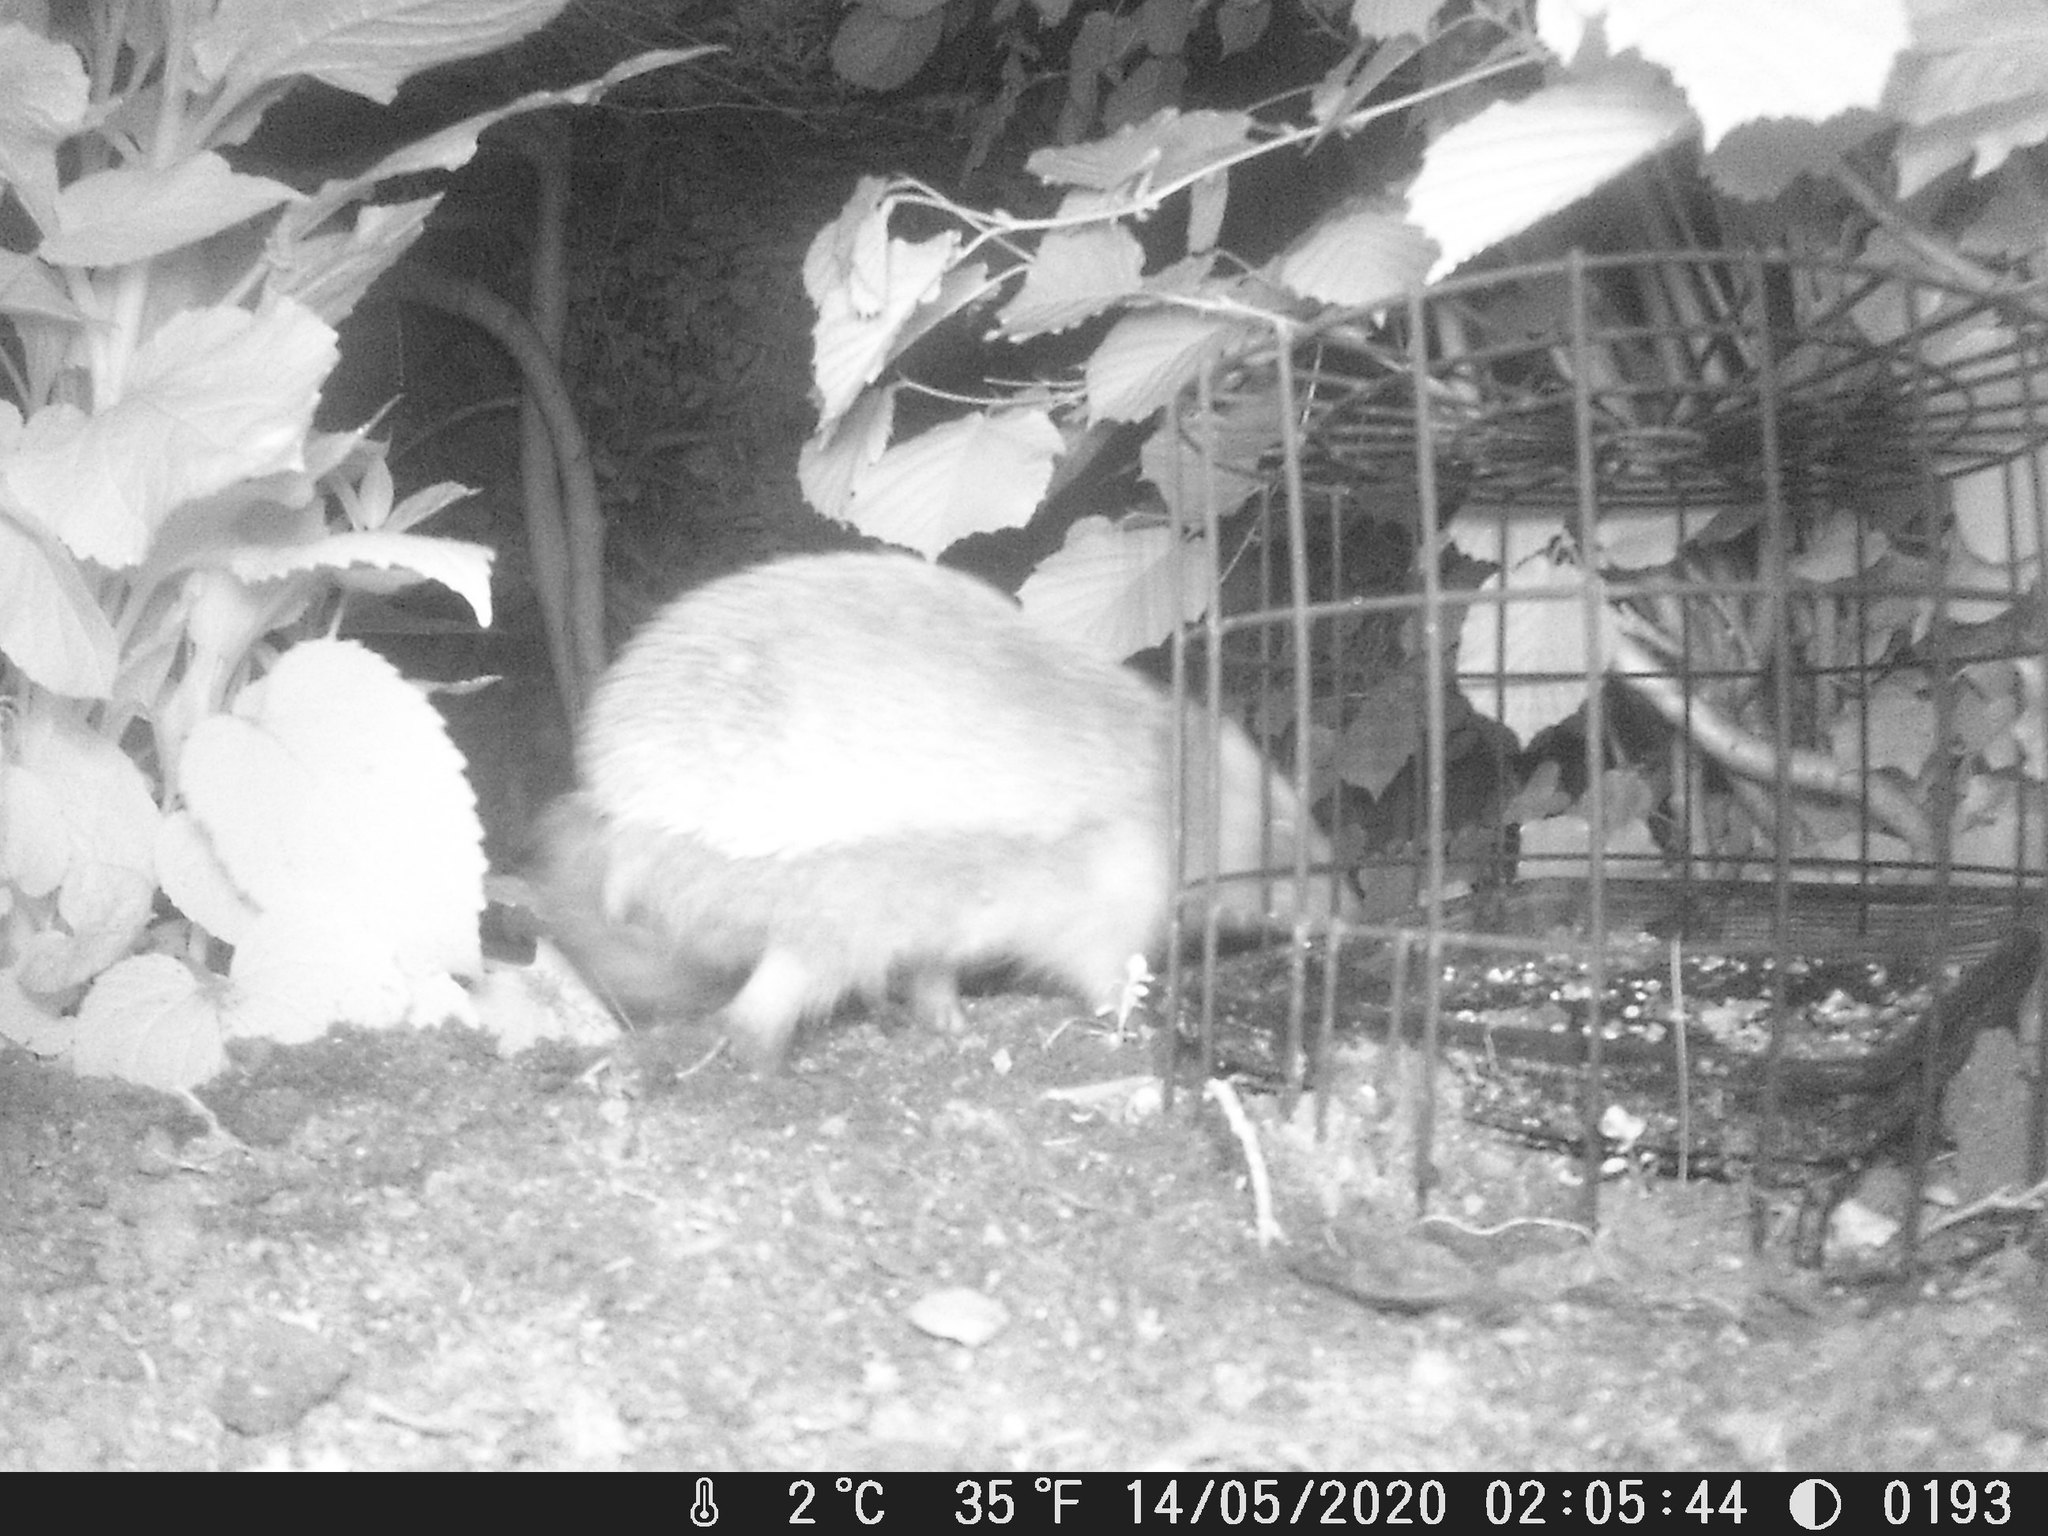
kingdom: Animalia
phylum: Chordata
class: Mammalia
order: Erinaceomorpha
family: Erinaceidae
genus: Erinaceus
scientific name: Erinaceus europaeus
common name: West european hedgehog
